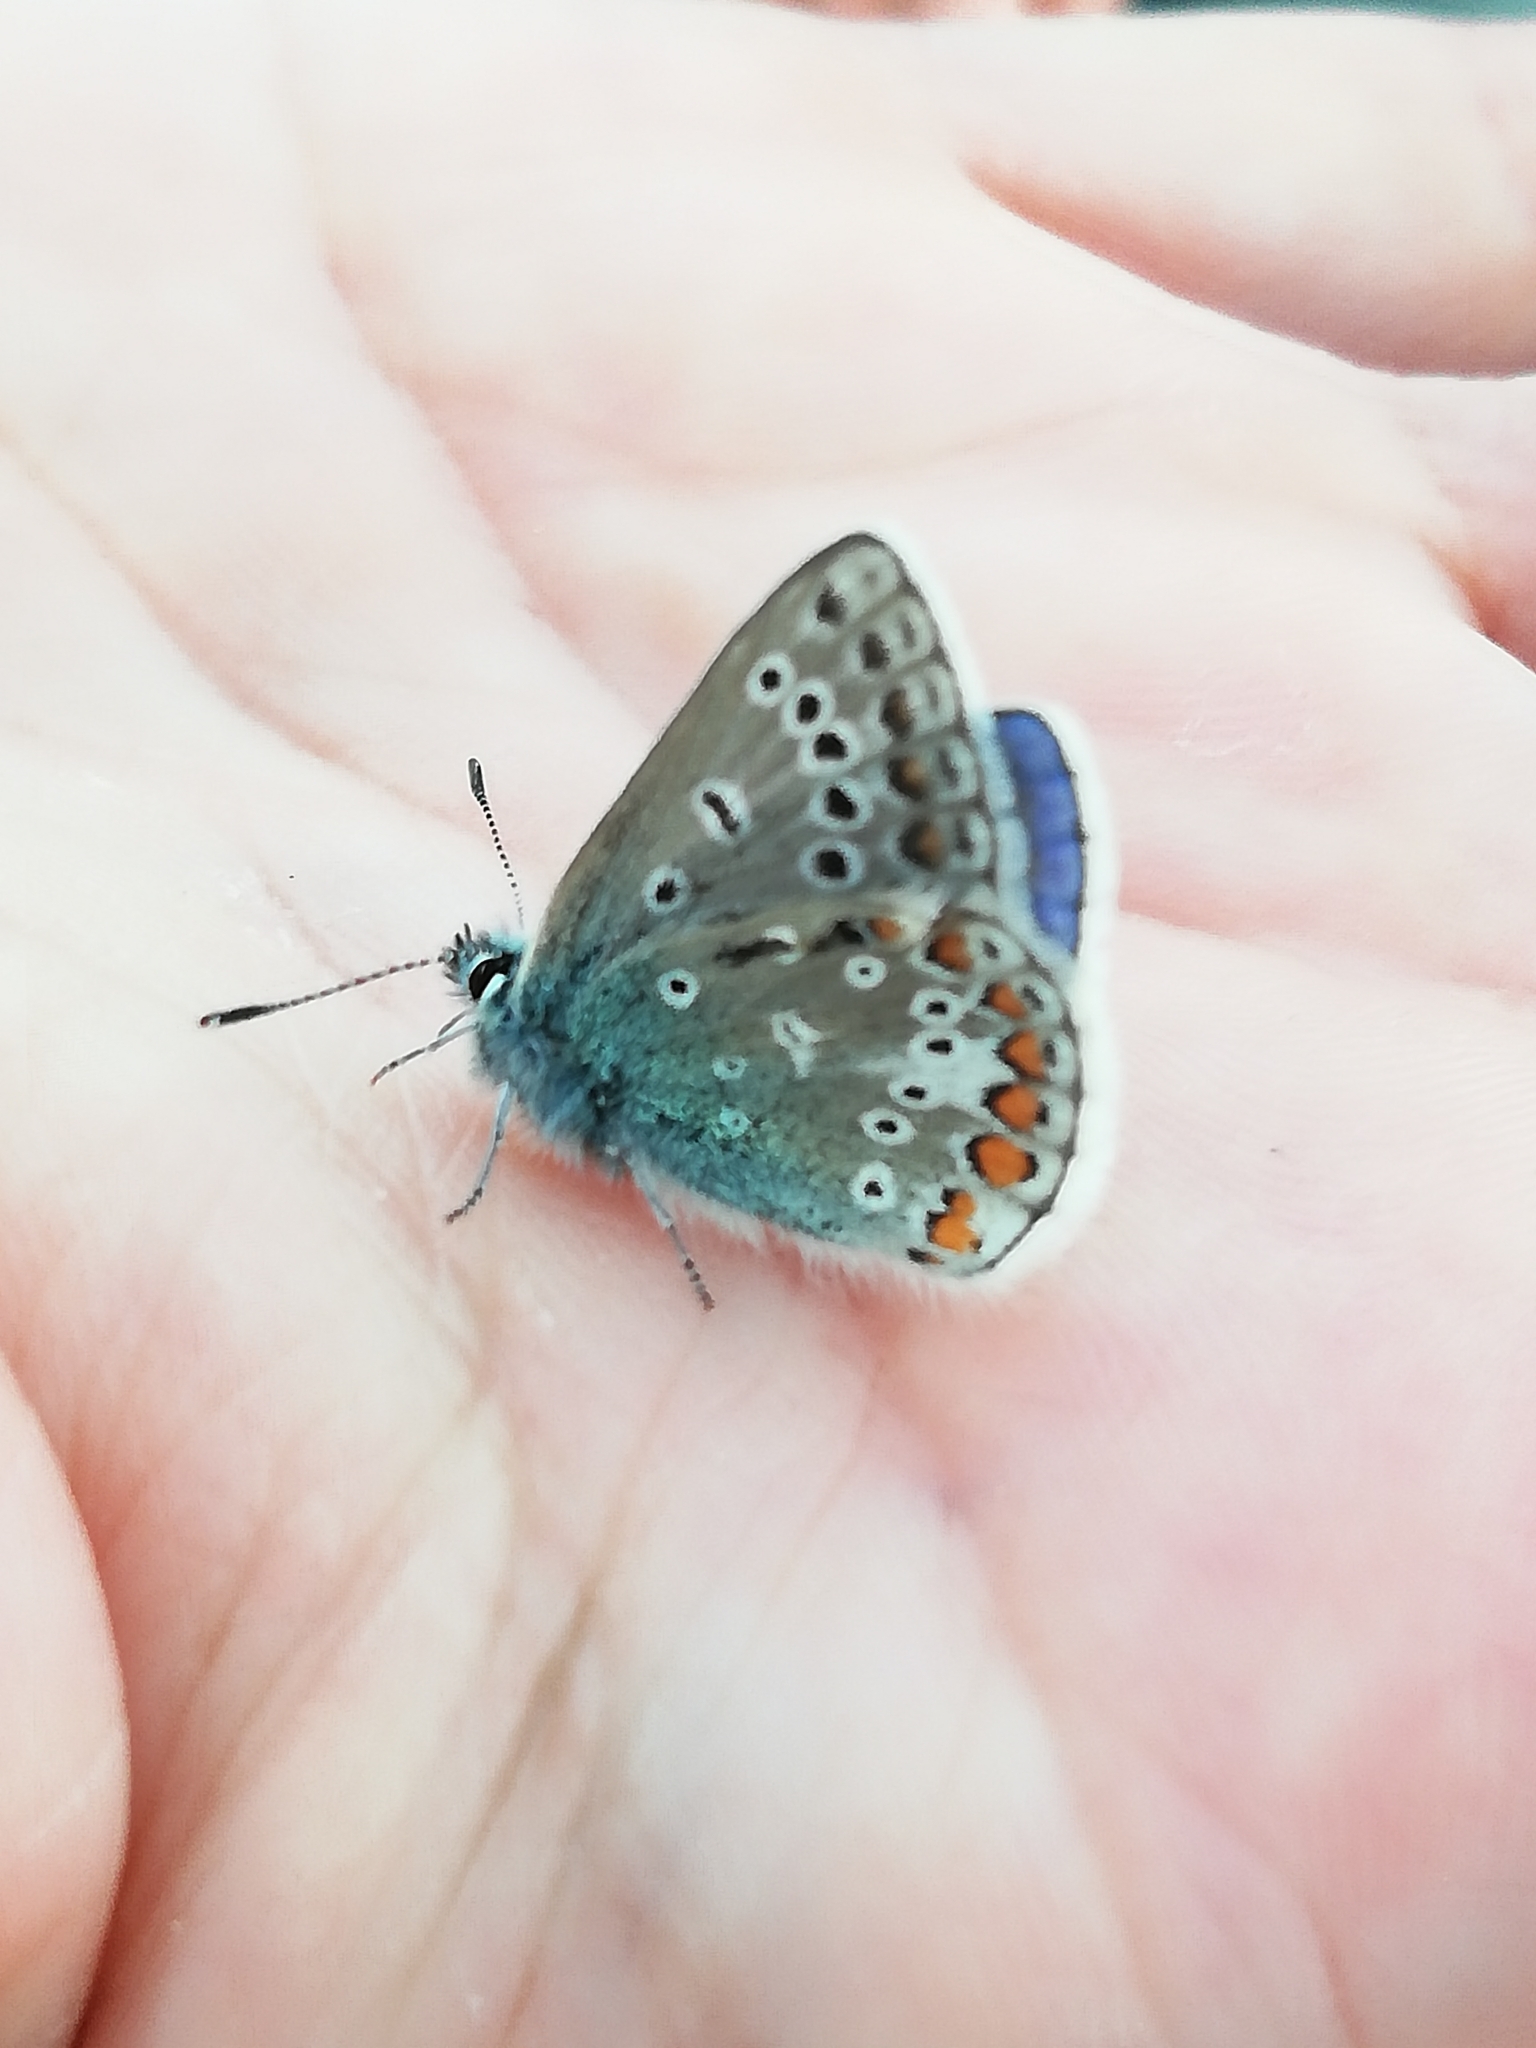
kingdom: Animalia
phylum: Arthropoda
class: Insecta
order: Lepidoptera
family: Lycaenidae
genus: Polyommatus
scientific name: Polyommatus icarus
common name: Common blue
